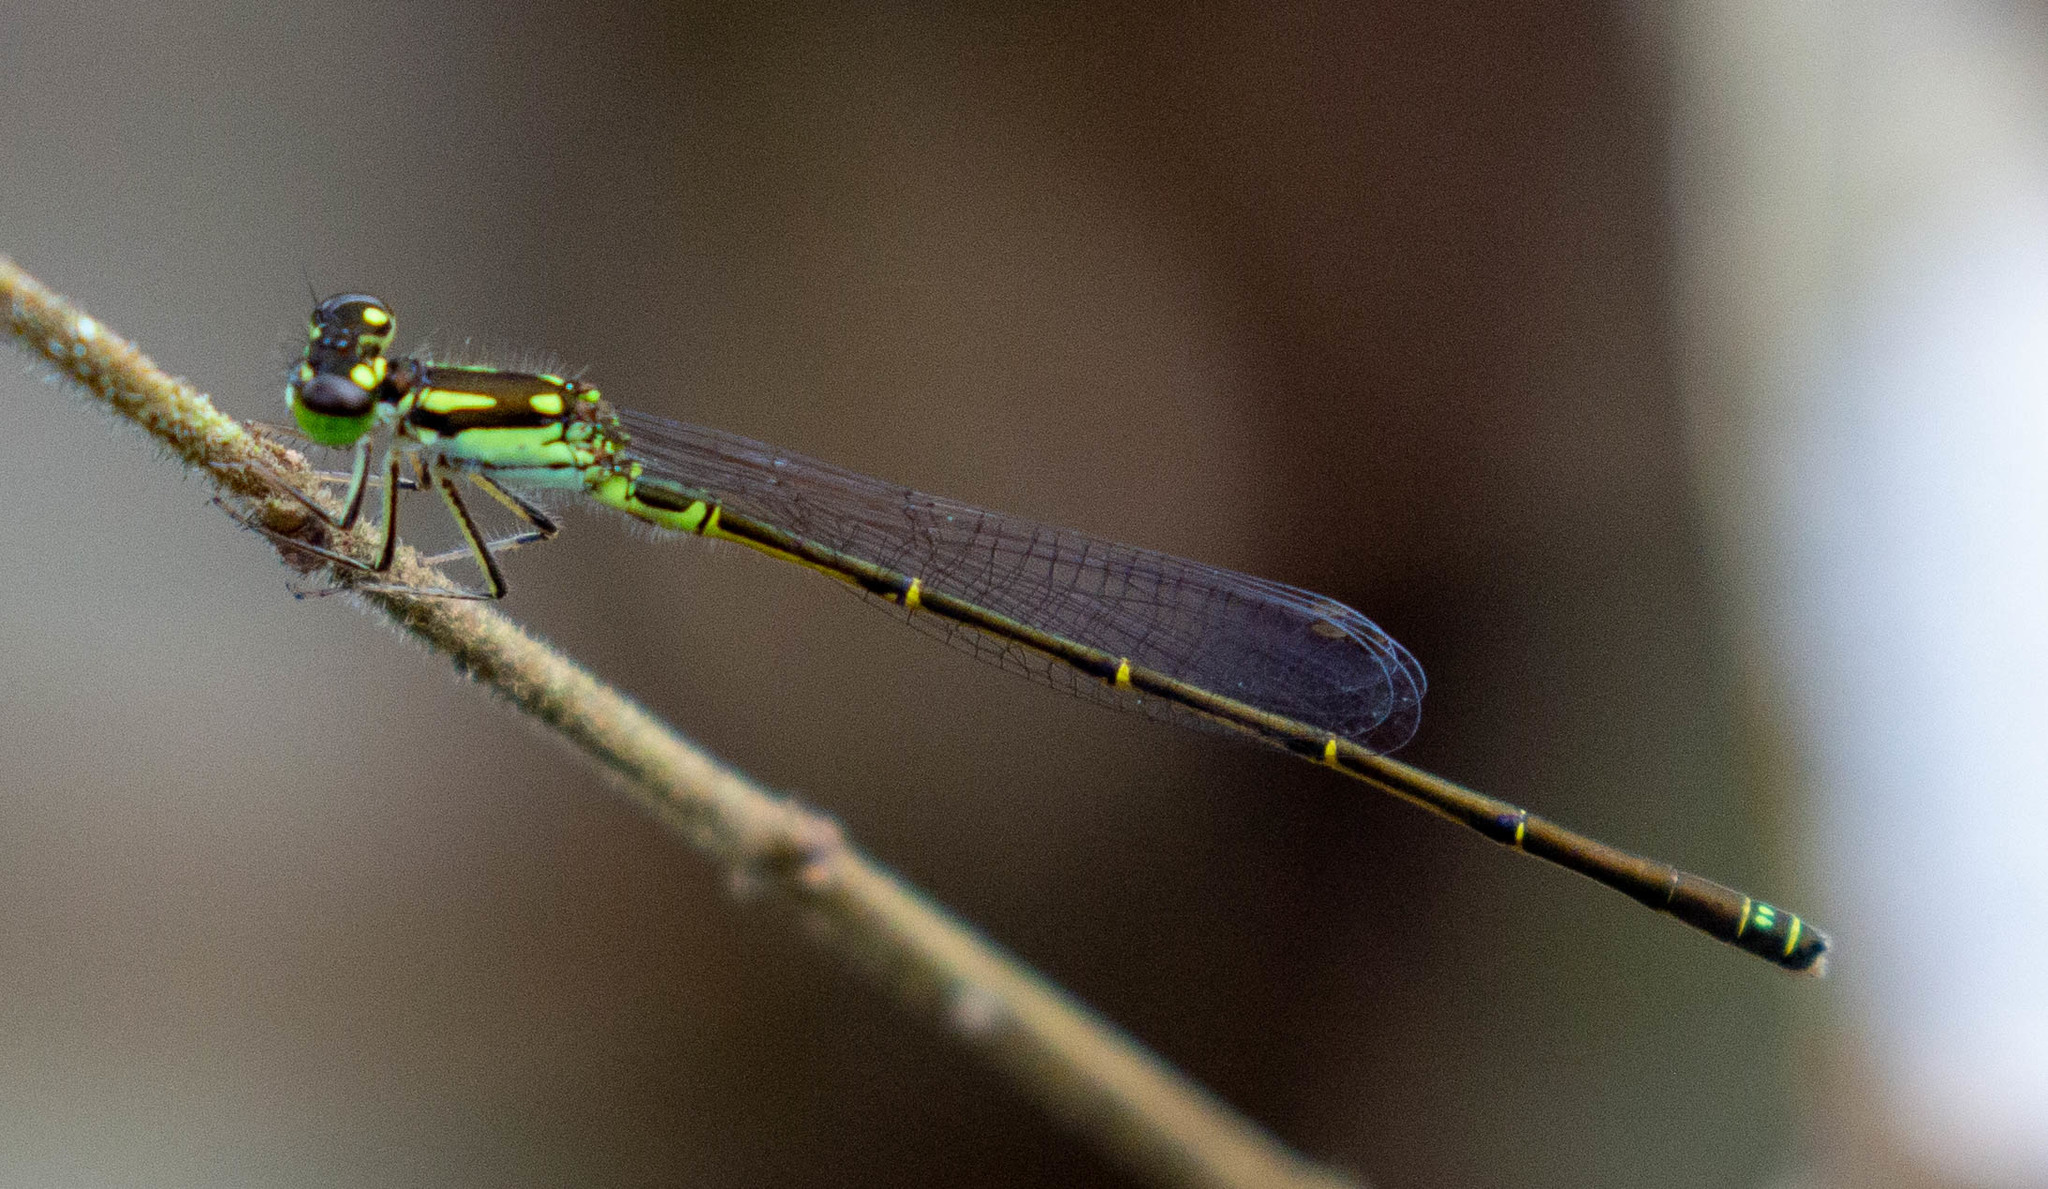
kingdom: Animalia
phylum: Arthropoda
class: Insecta
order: Odonata
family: Coenagrionidae
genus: Ischnura
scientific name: Ischnura posita
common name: Fragile forktail
